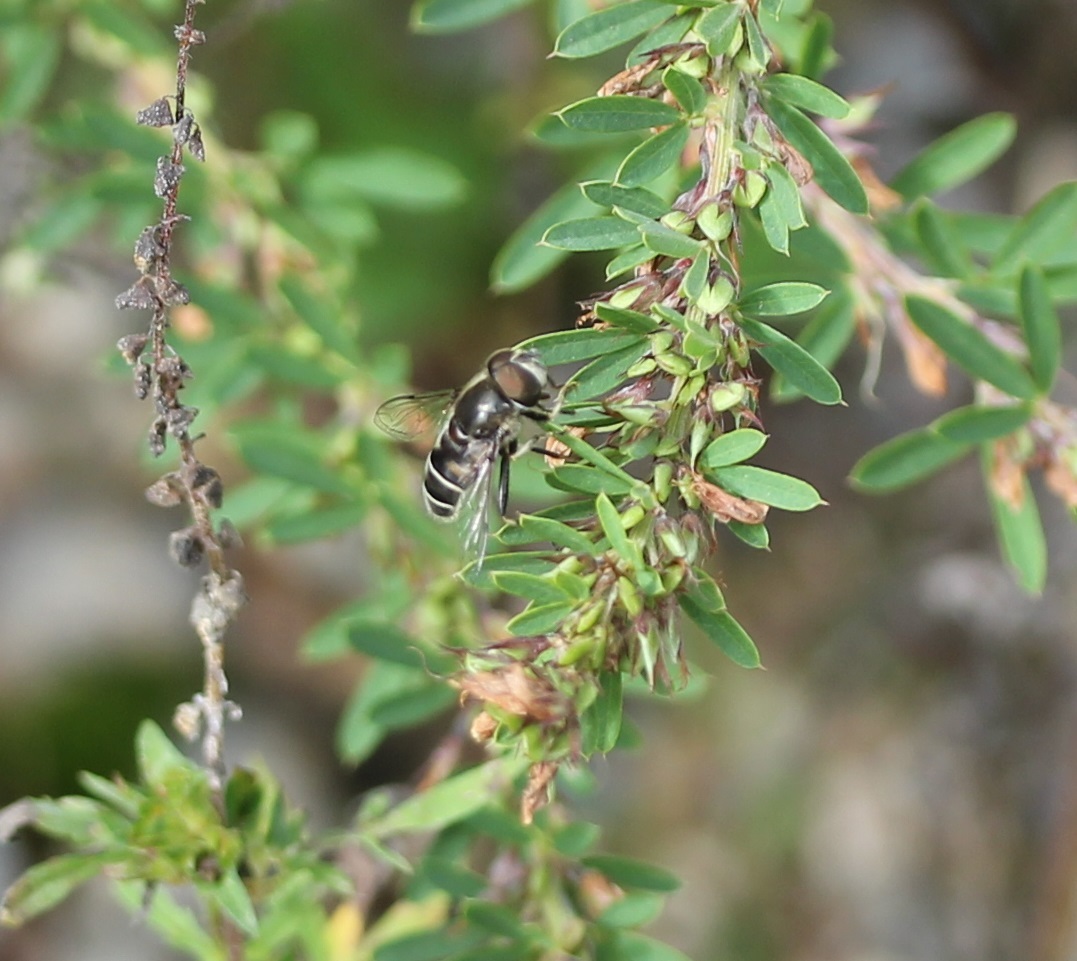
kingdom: Animalia
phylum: Arthropoda
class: Insecta
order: Diptera
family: Syrphidae
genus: Eristalis
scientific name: Eristalis dimidiata
